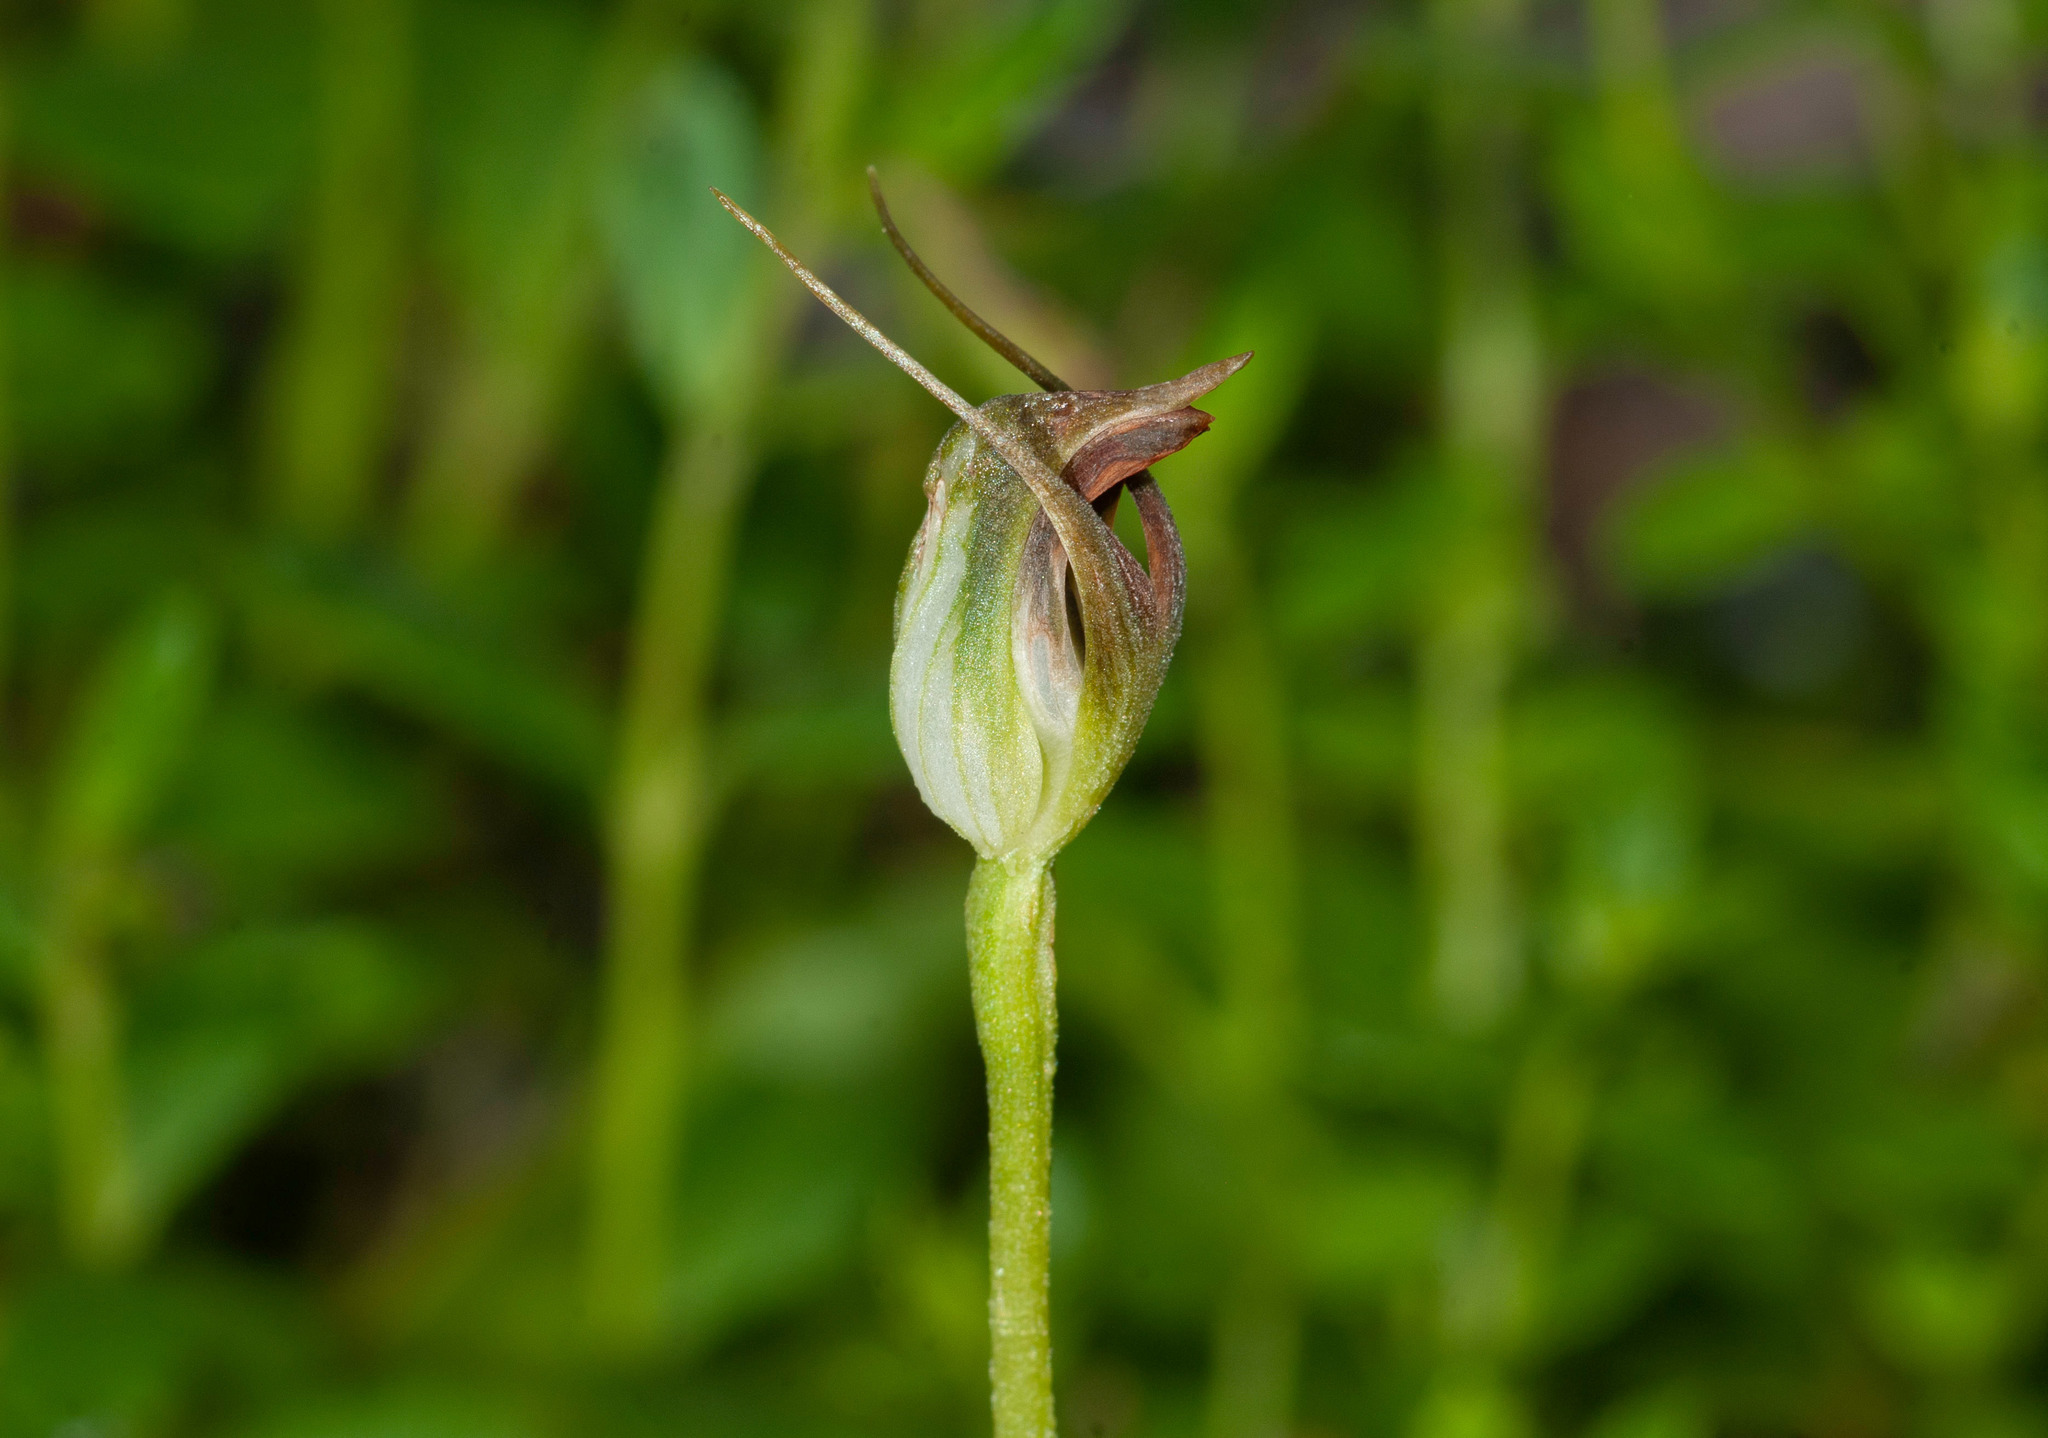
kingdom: Plantae
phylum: Tracheophyta
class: Liliopsida
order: Asparagales
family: Orchidaceae
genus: Pterostylis
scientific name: Pterostylis pedunculata
